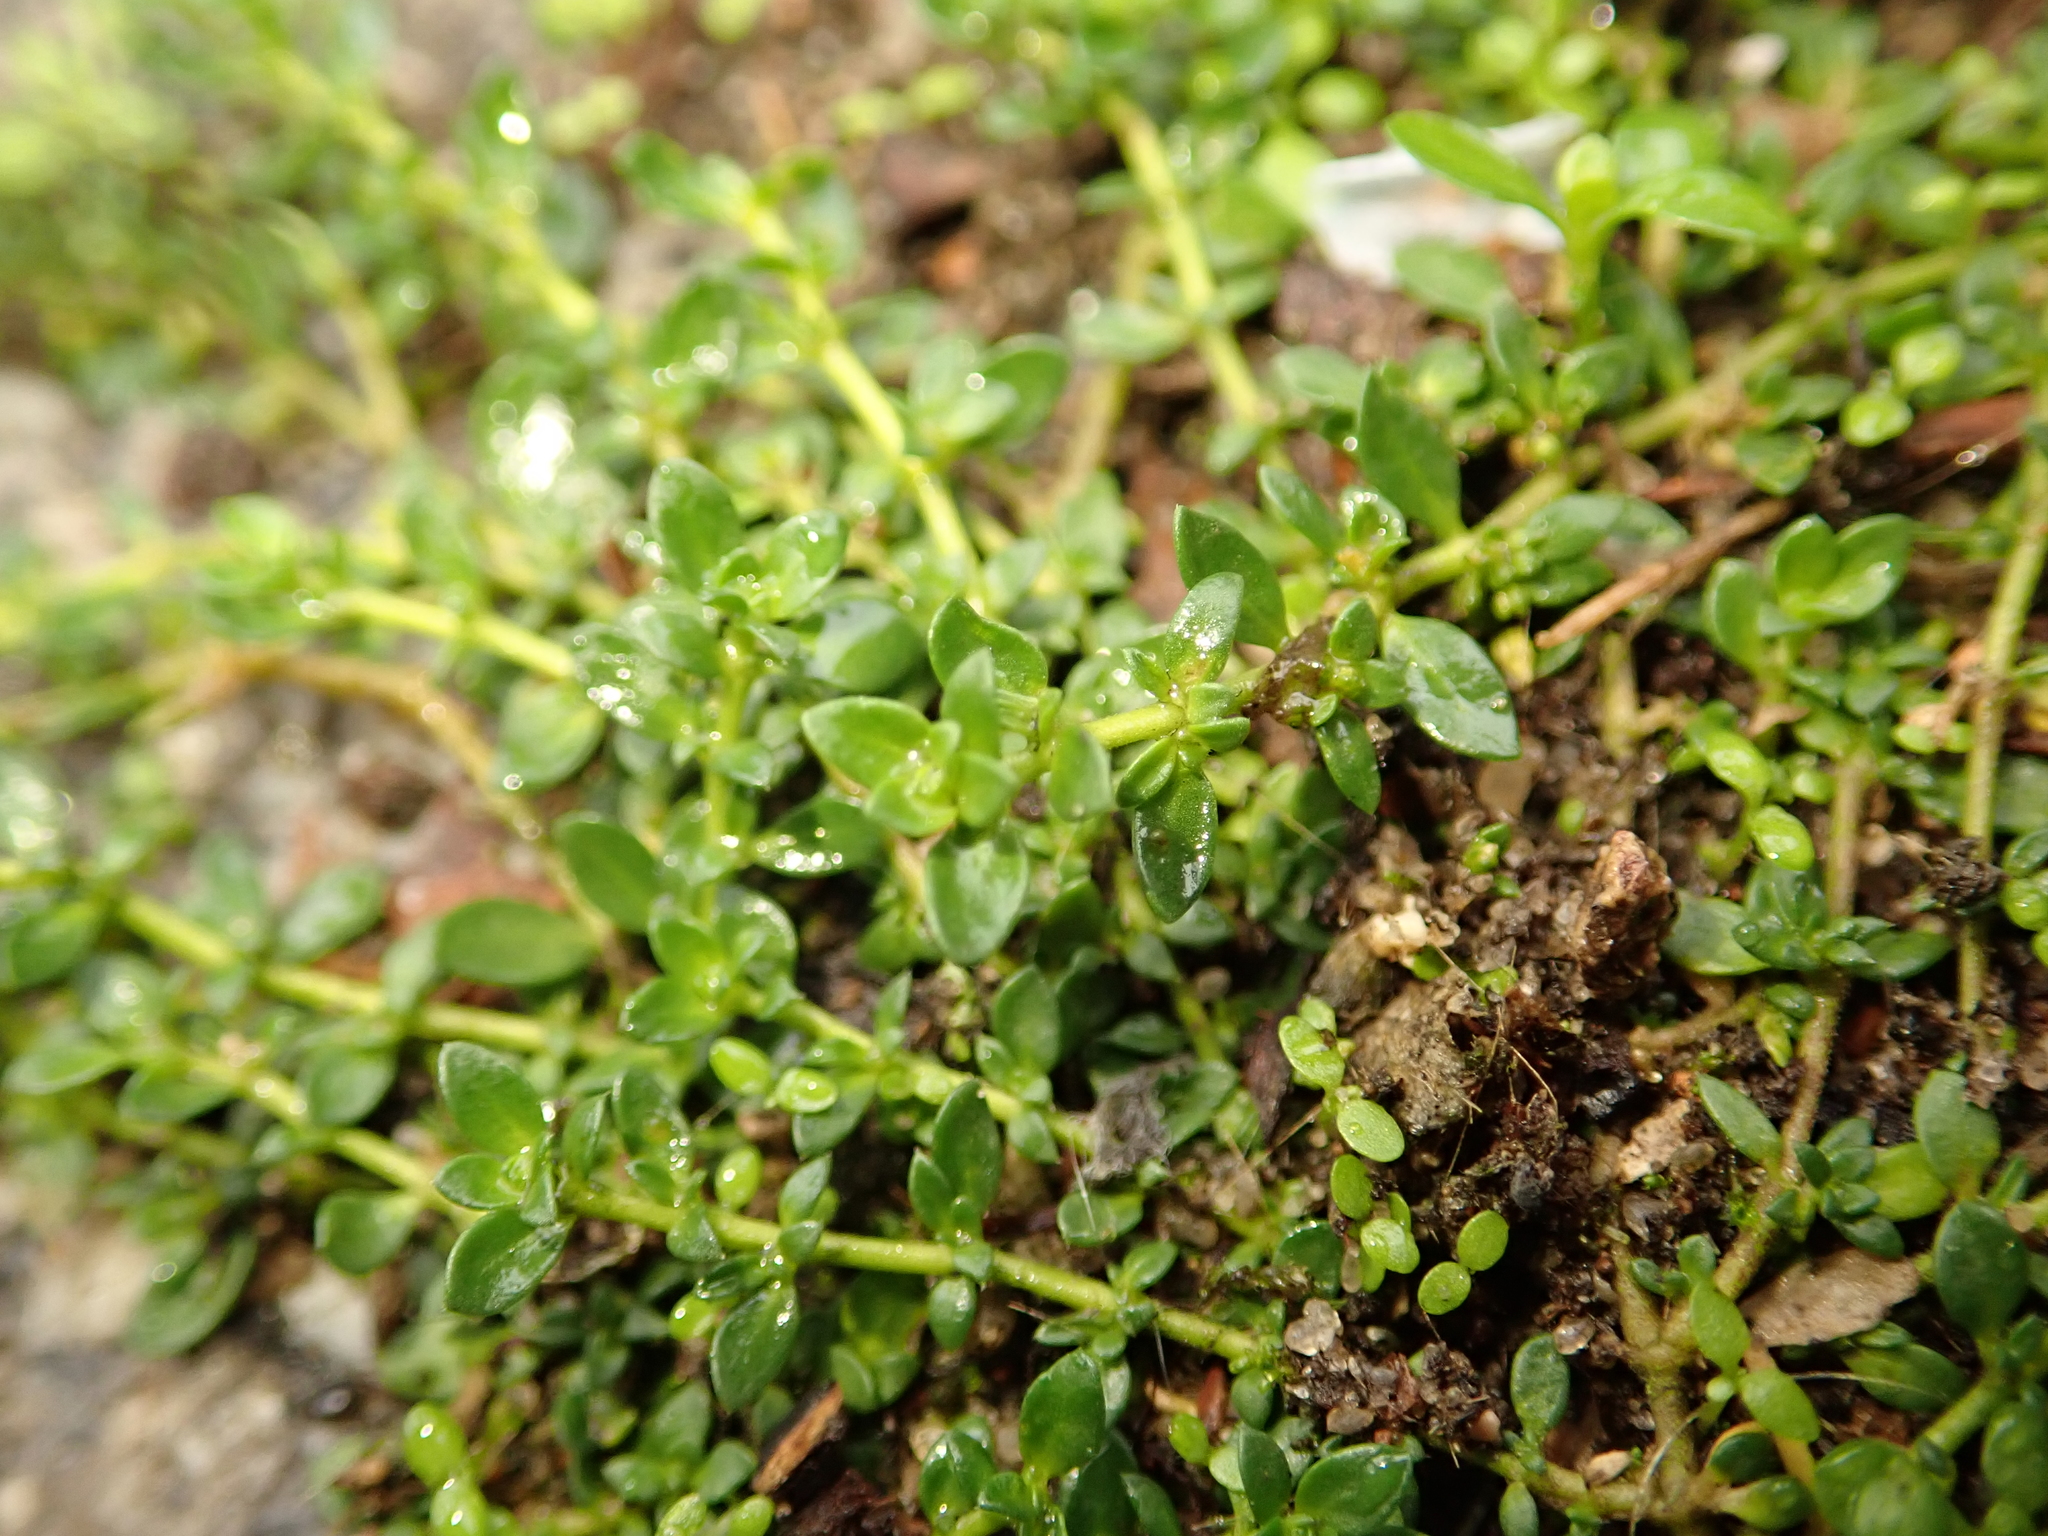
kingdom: Plantae
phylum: Tracheophyta
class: Magnoliopsida
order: Caryophyllales
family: Caryophyllaceae
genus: Herniaria
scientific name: Herniaria glabra
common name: Smooth rupturewort
